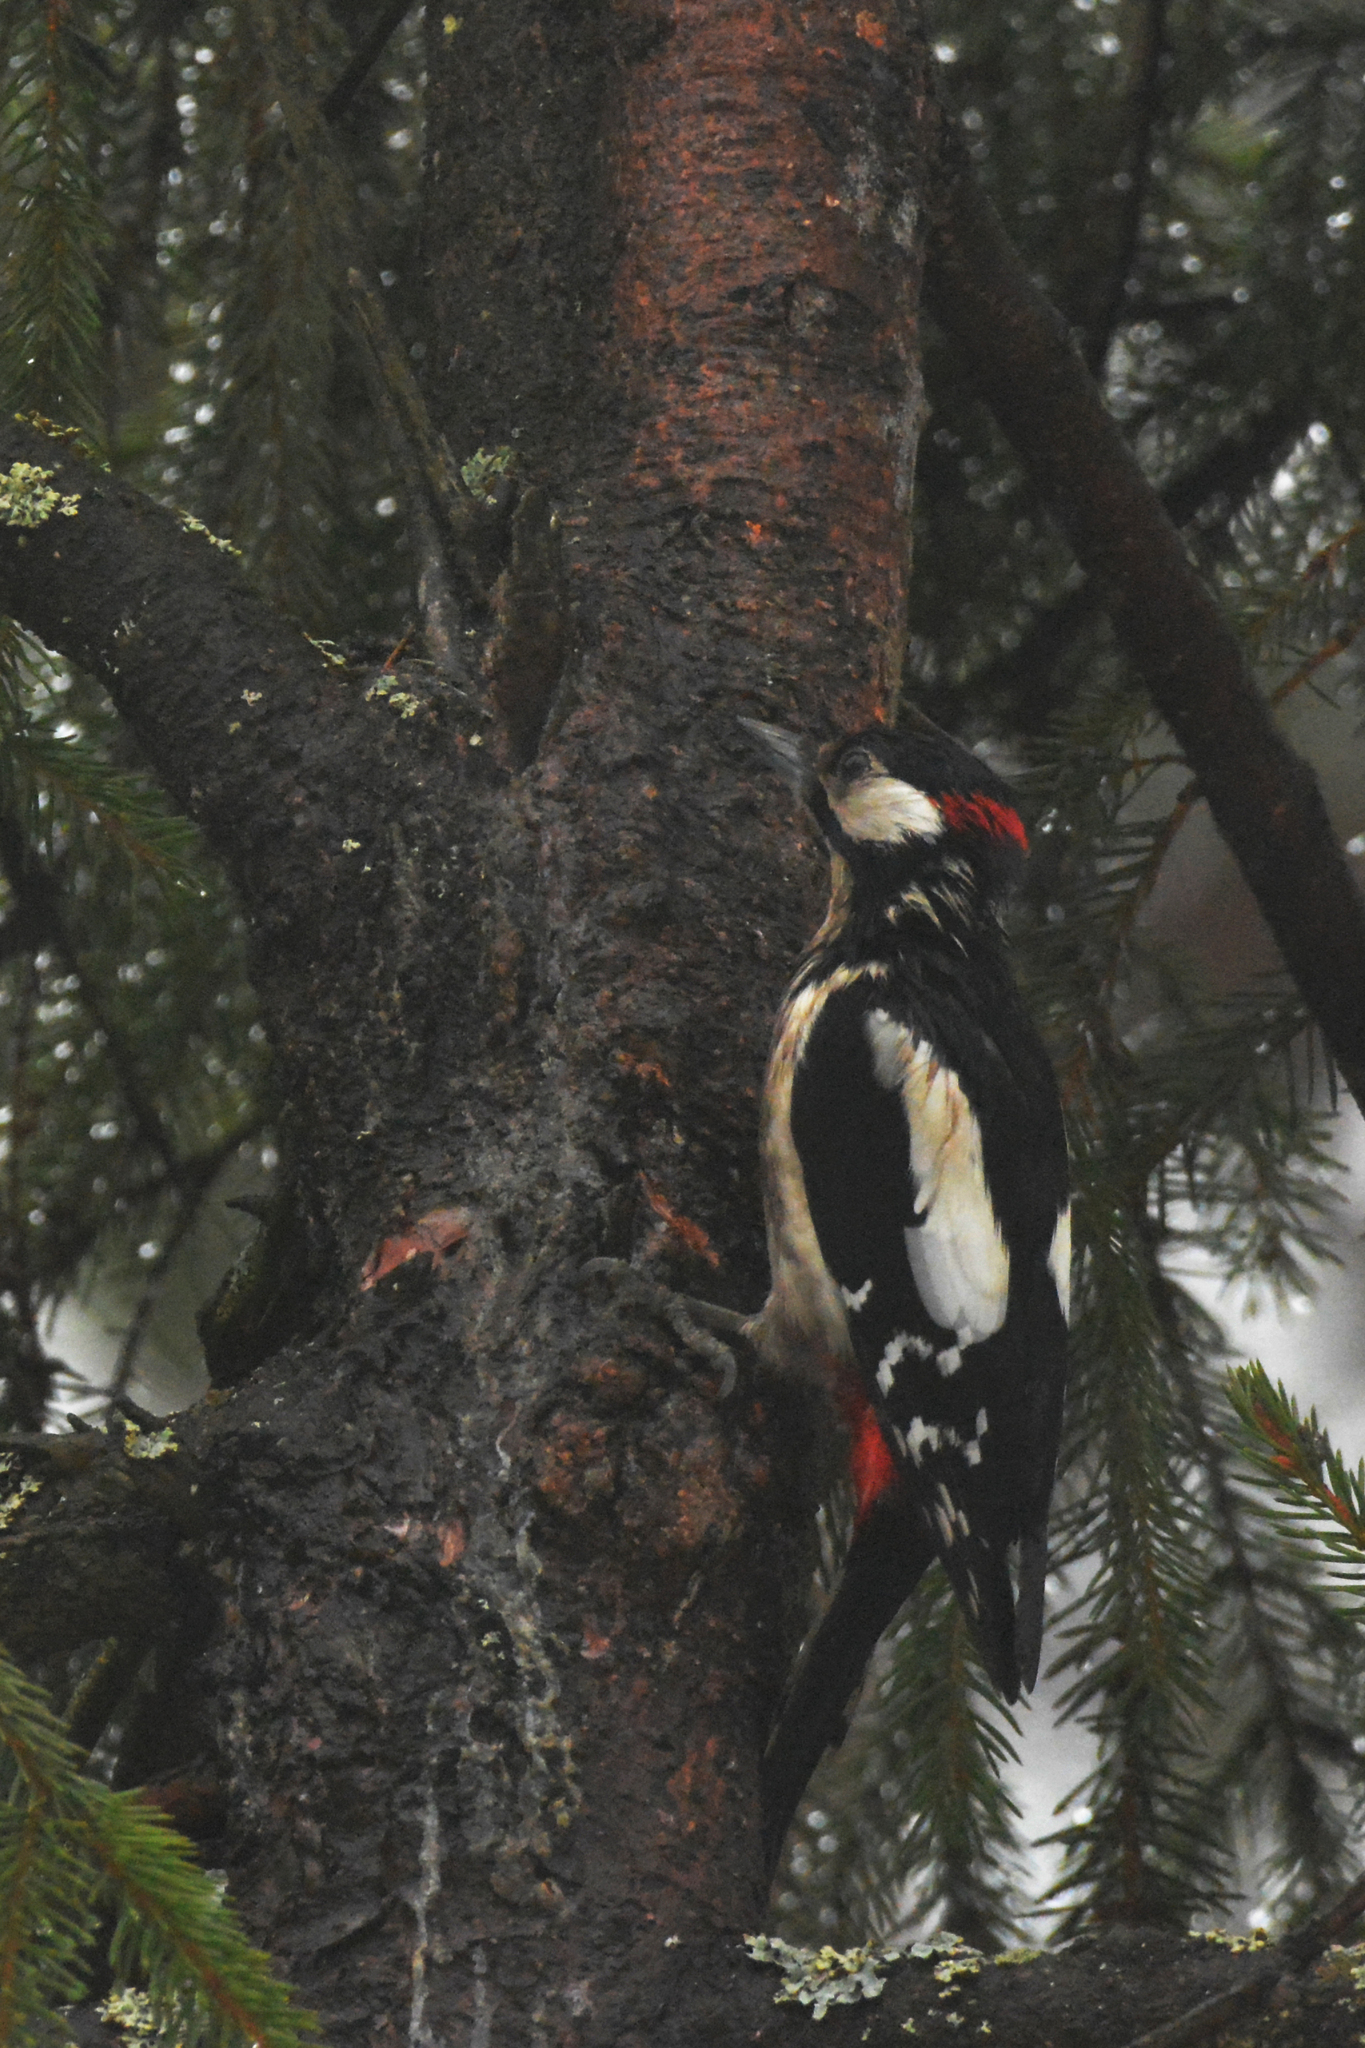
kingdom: Animalia
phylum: Chordata
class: Aves
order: Piciformes
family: Picidae
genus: Dendrocopos
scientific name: Dendrocopos major
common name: Great spotted woodpecker
